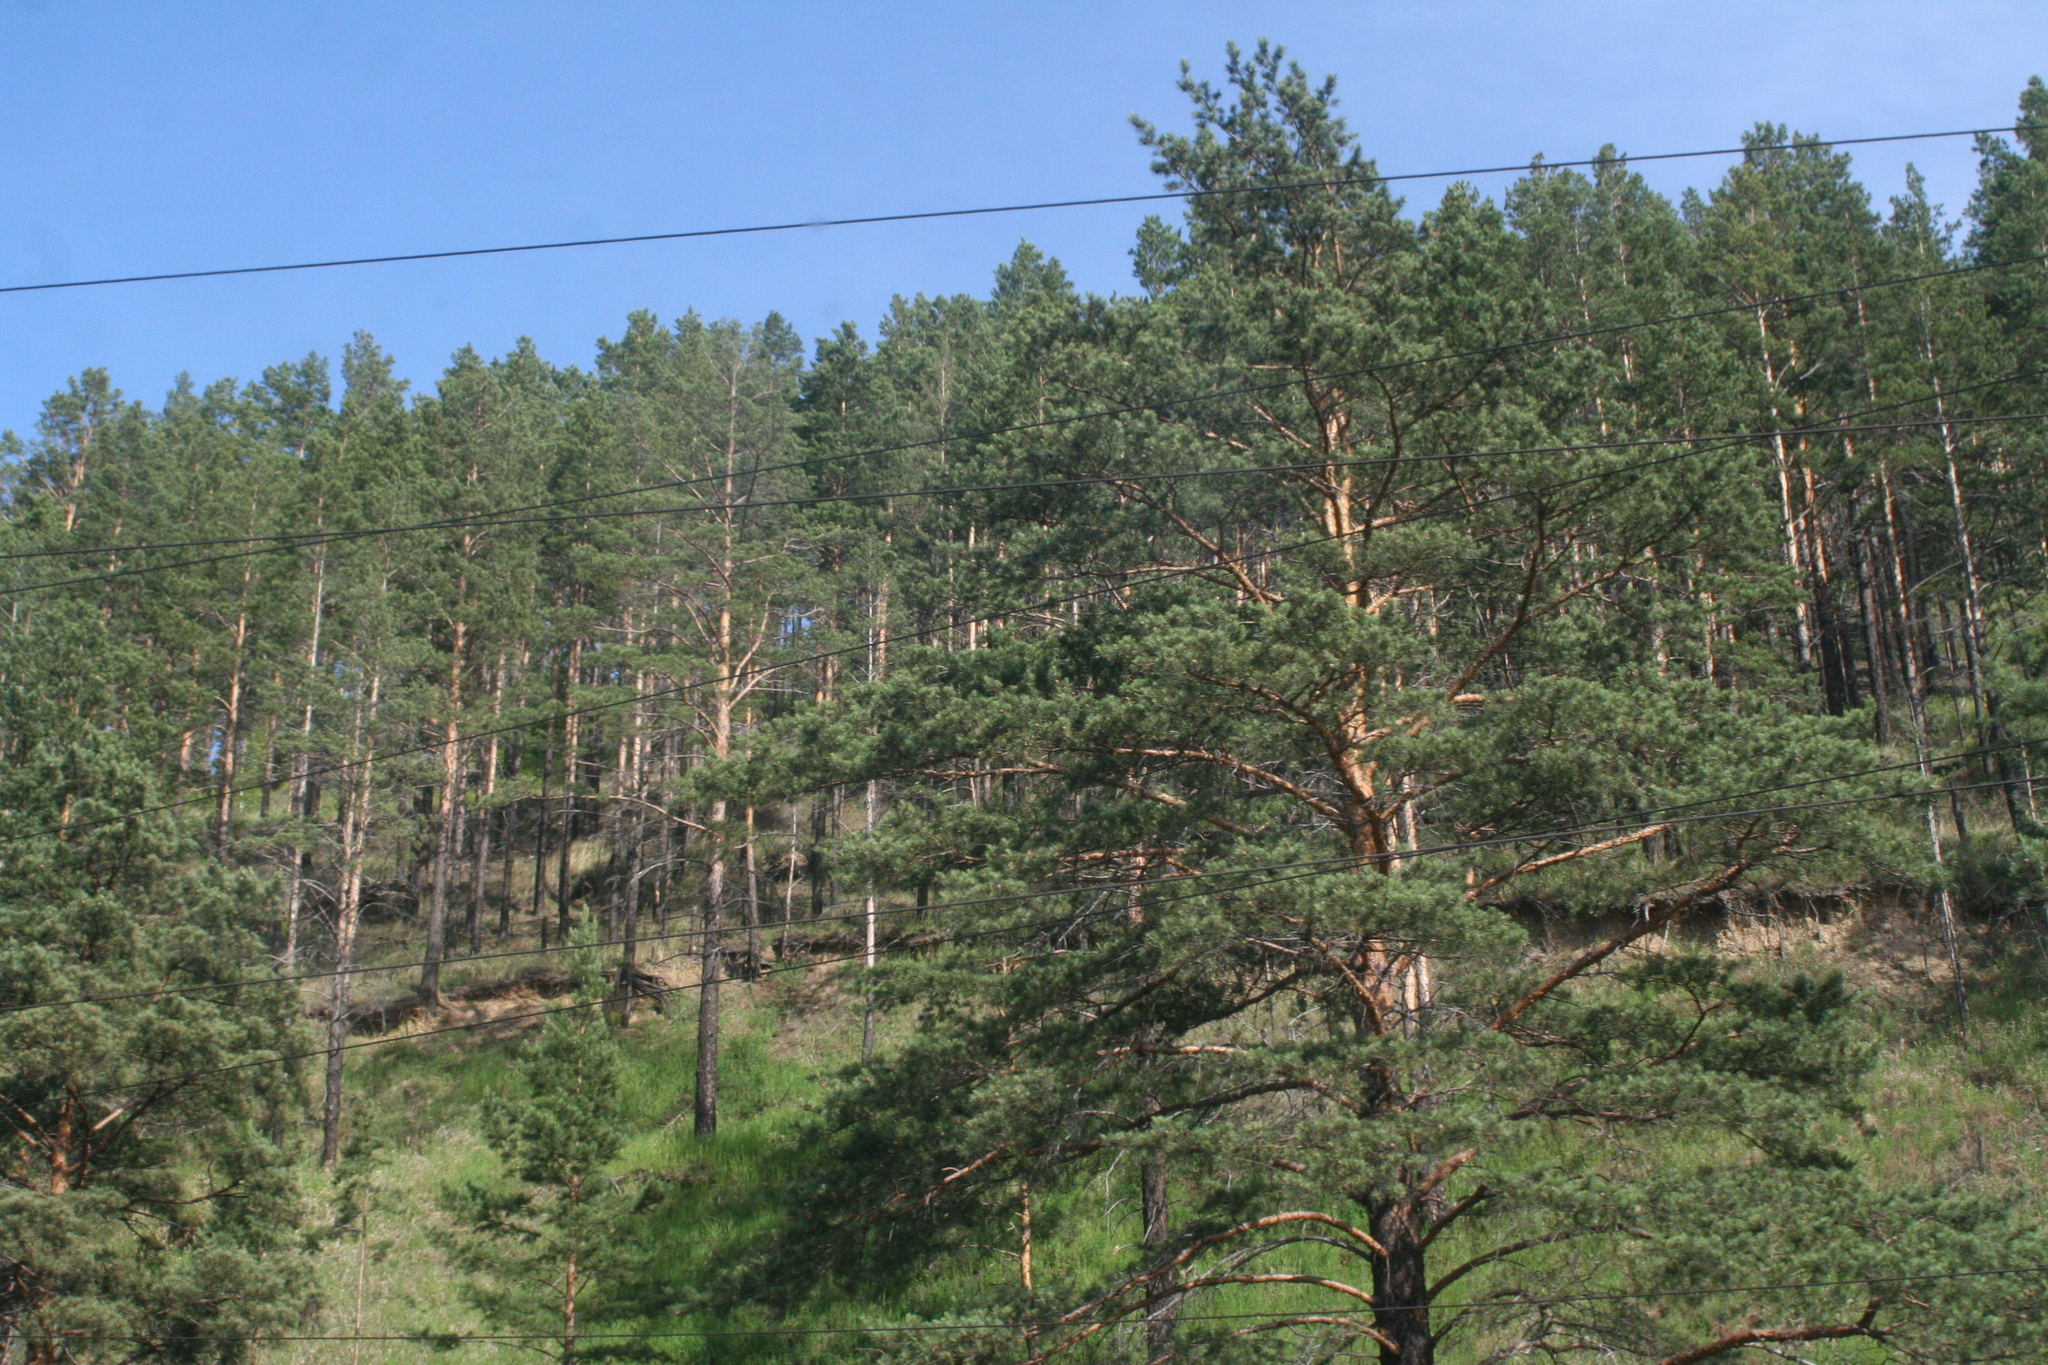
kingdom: Plantae
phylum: Tracheophyta
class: Pinopsida
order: Pinales
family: Pinaceae
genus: Pinus
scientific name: Pinus sylvestris
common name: Scots pine
